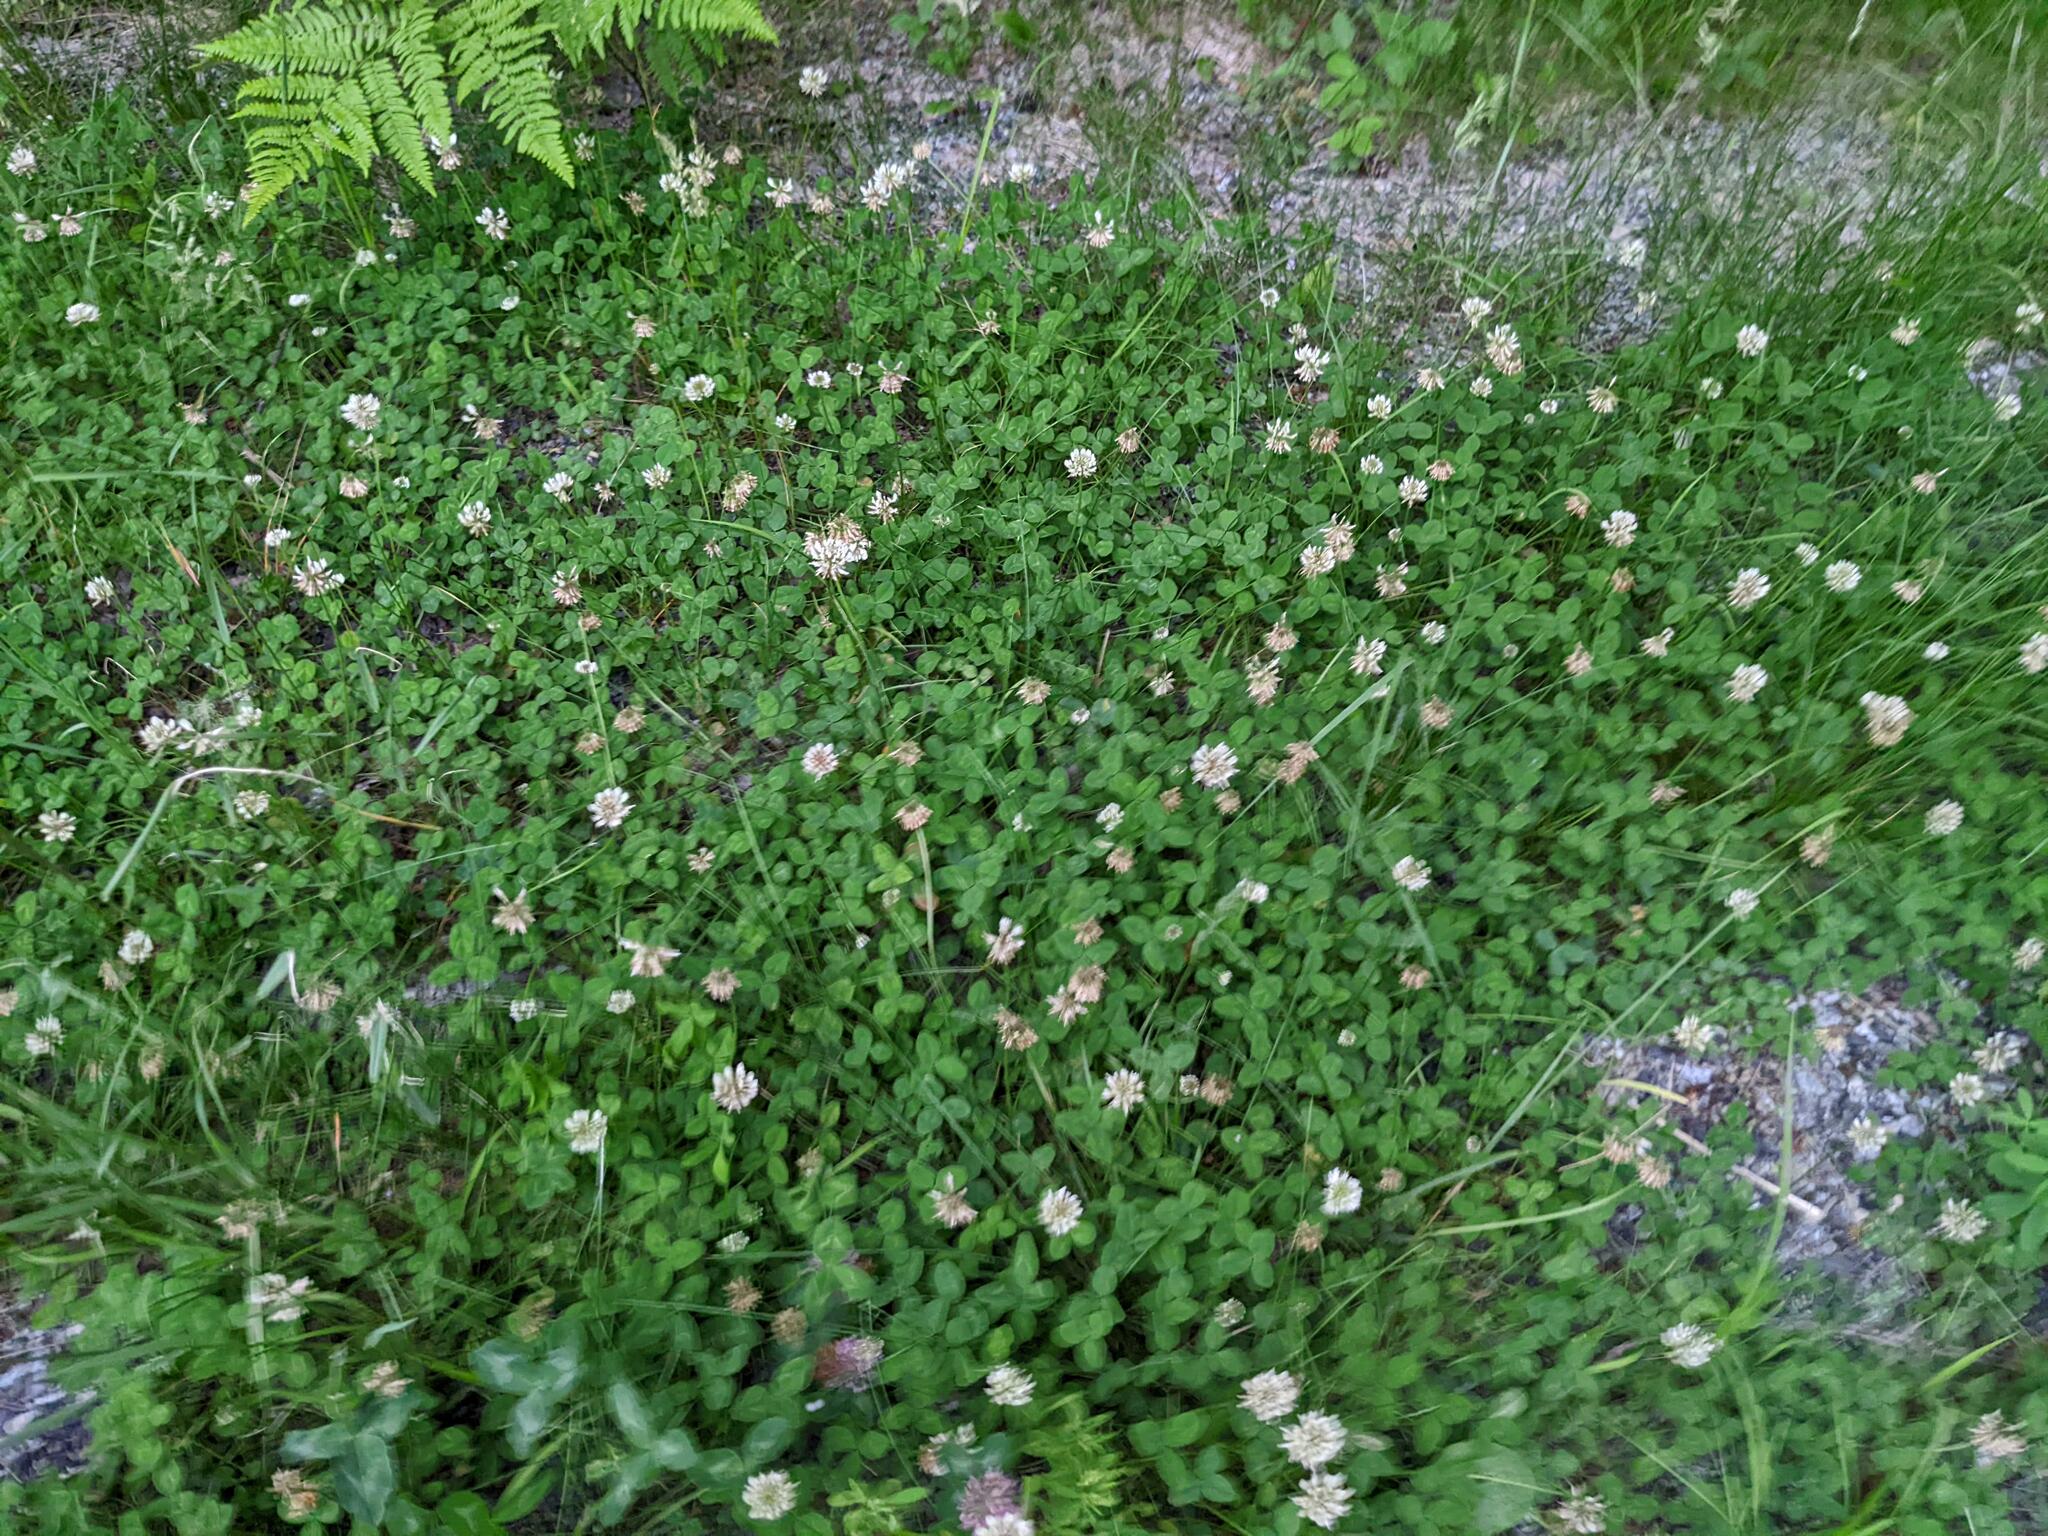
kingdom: Plantae
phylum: Tracheophyta
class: Magnoliopsida
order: Fabales
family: Fabaceae
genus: Trifolium
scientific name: Trifolium repens
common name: White clover
